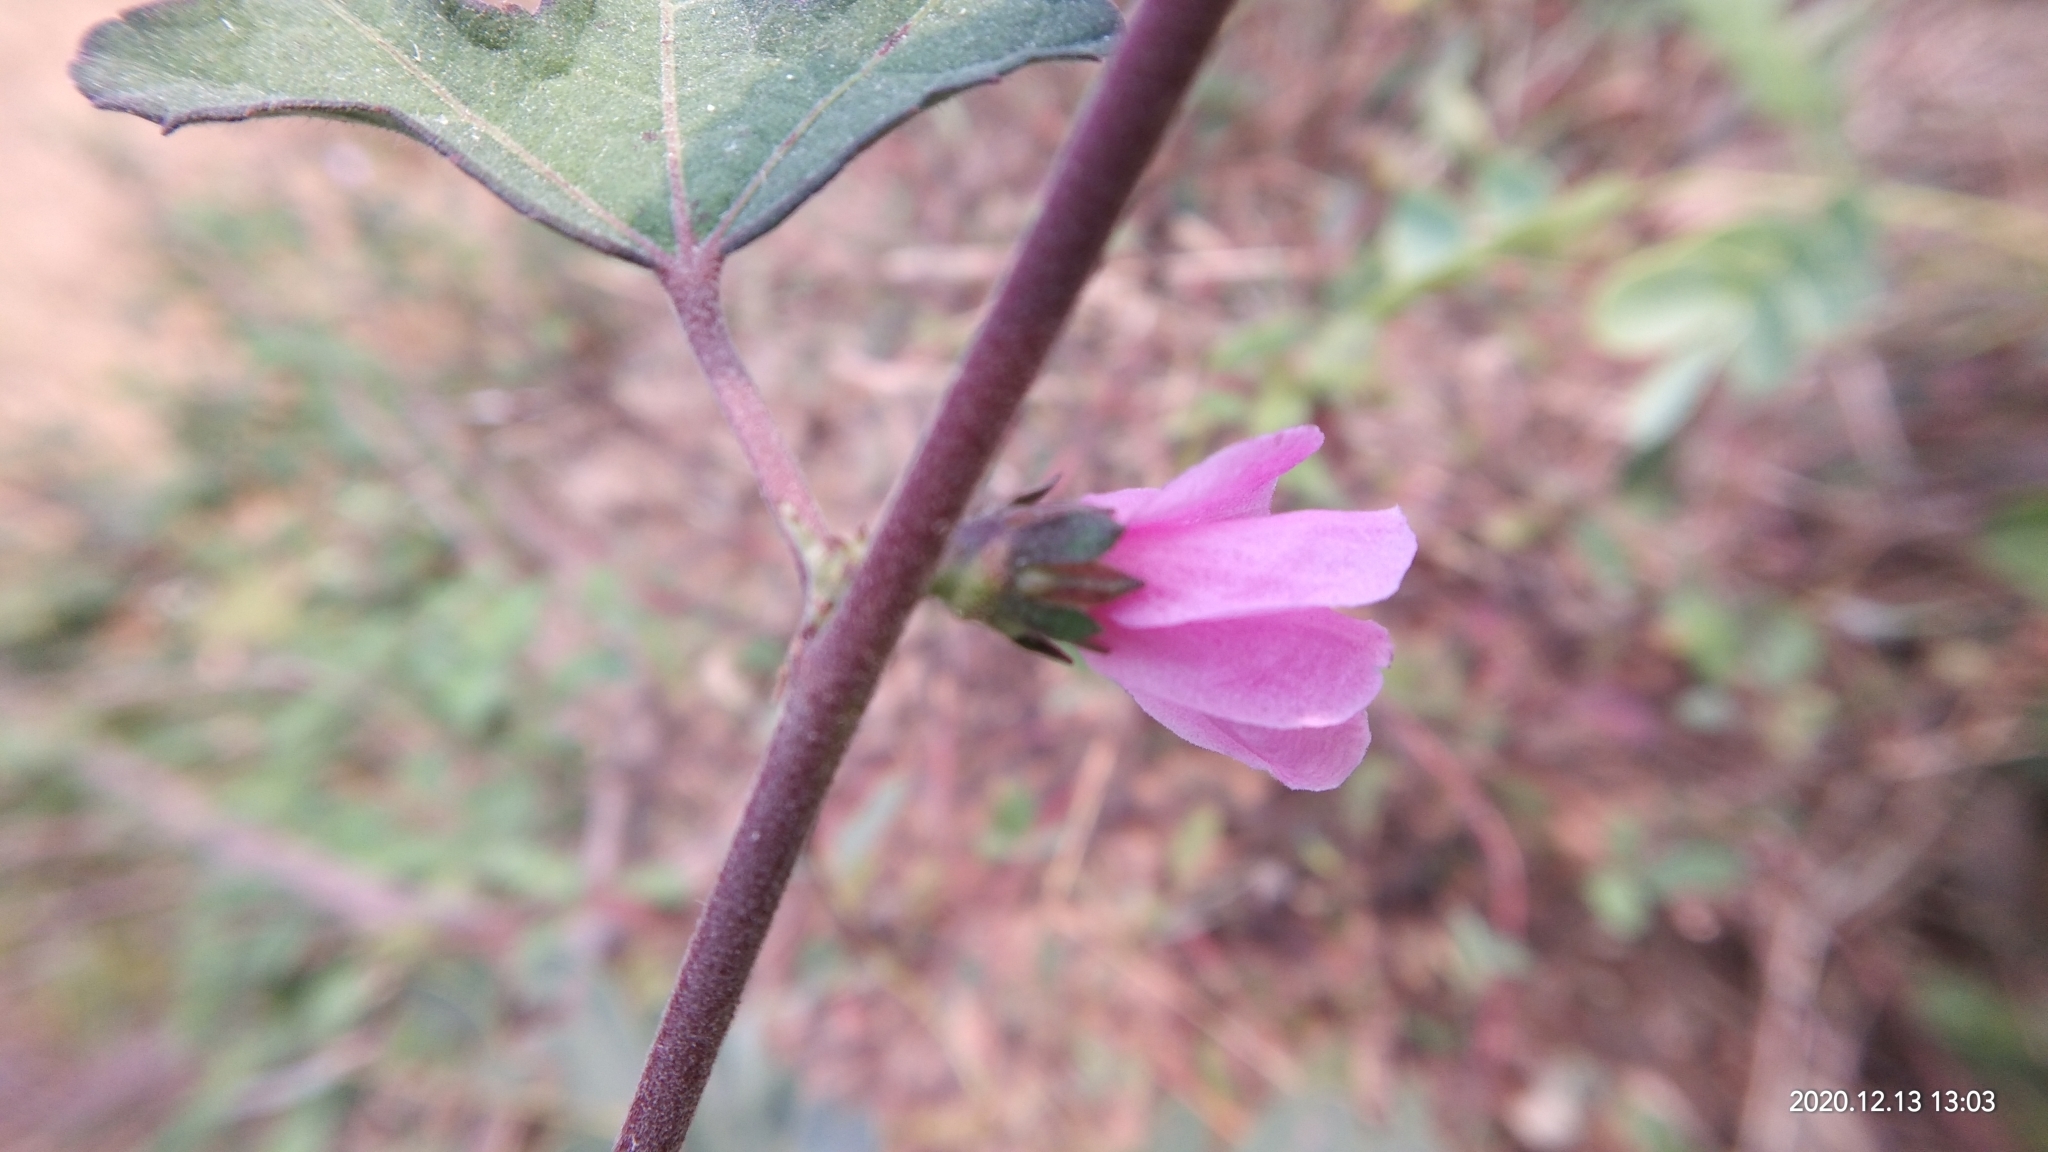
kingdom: Plantae
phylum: Tracheophyta
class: Magnoliopsida
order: Malvales
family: Malvaceae
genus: Urena
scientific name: Urena procumbens
